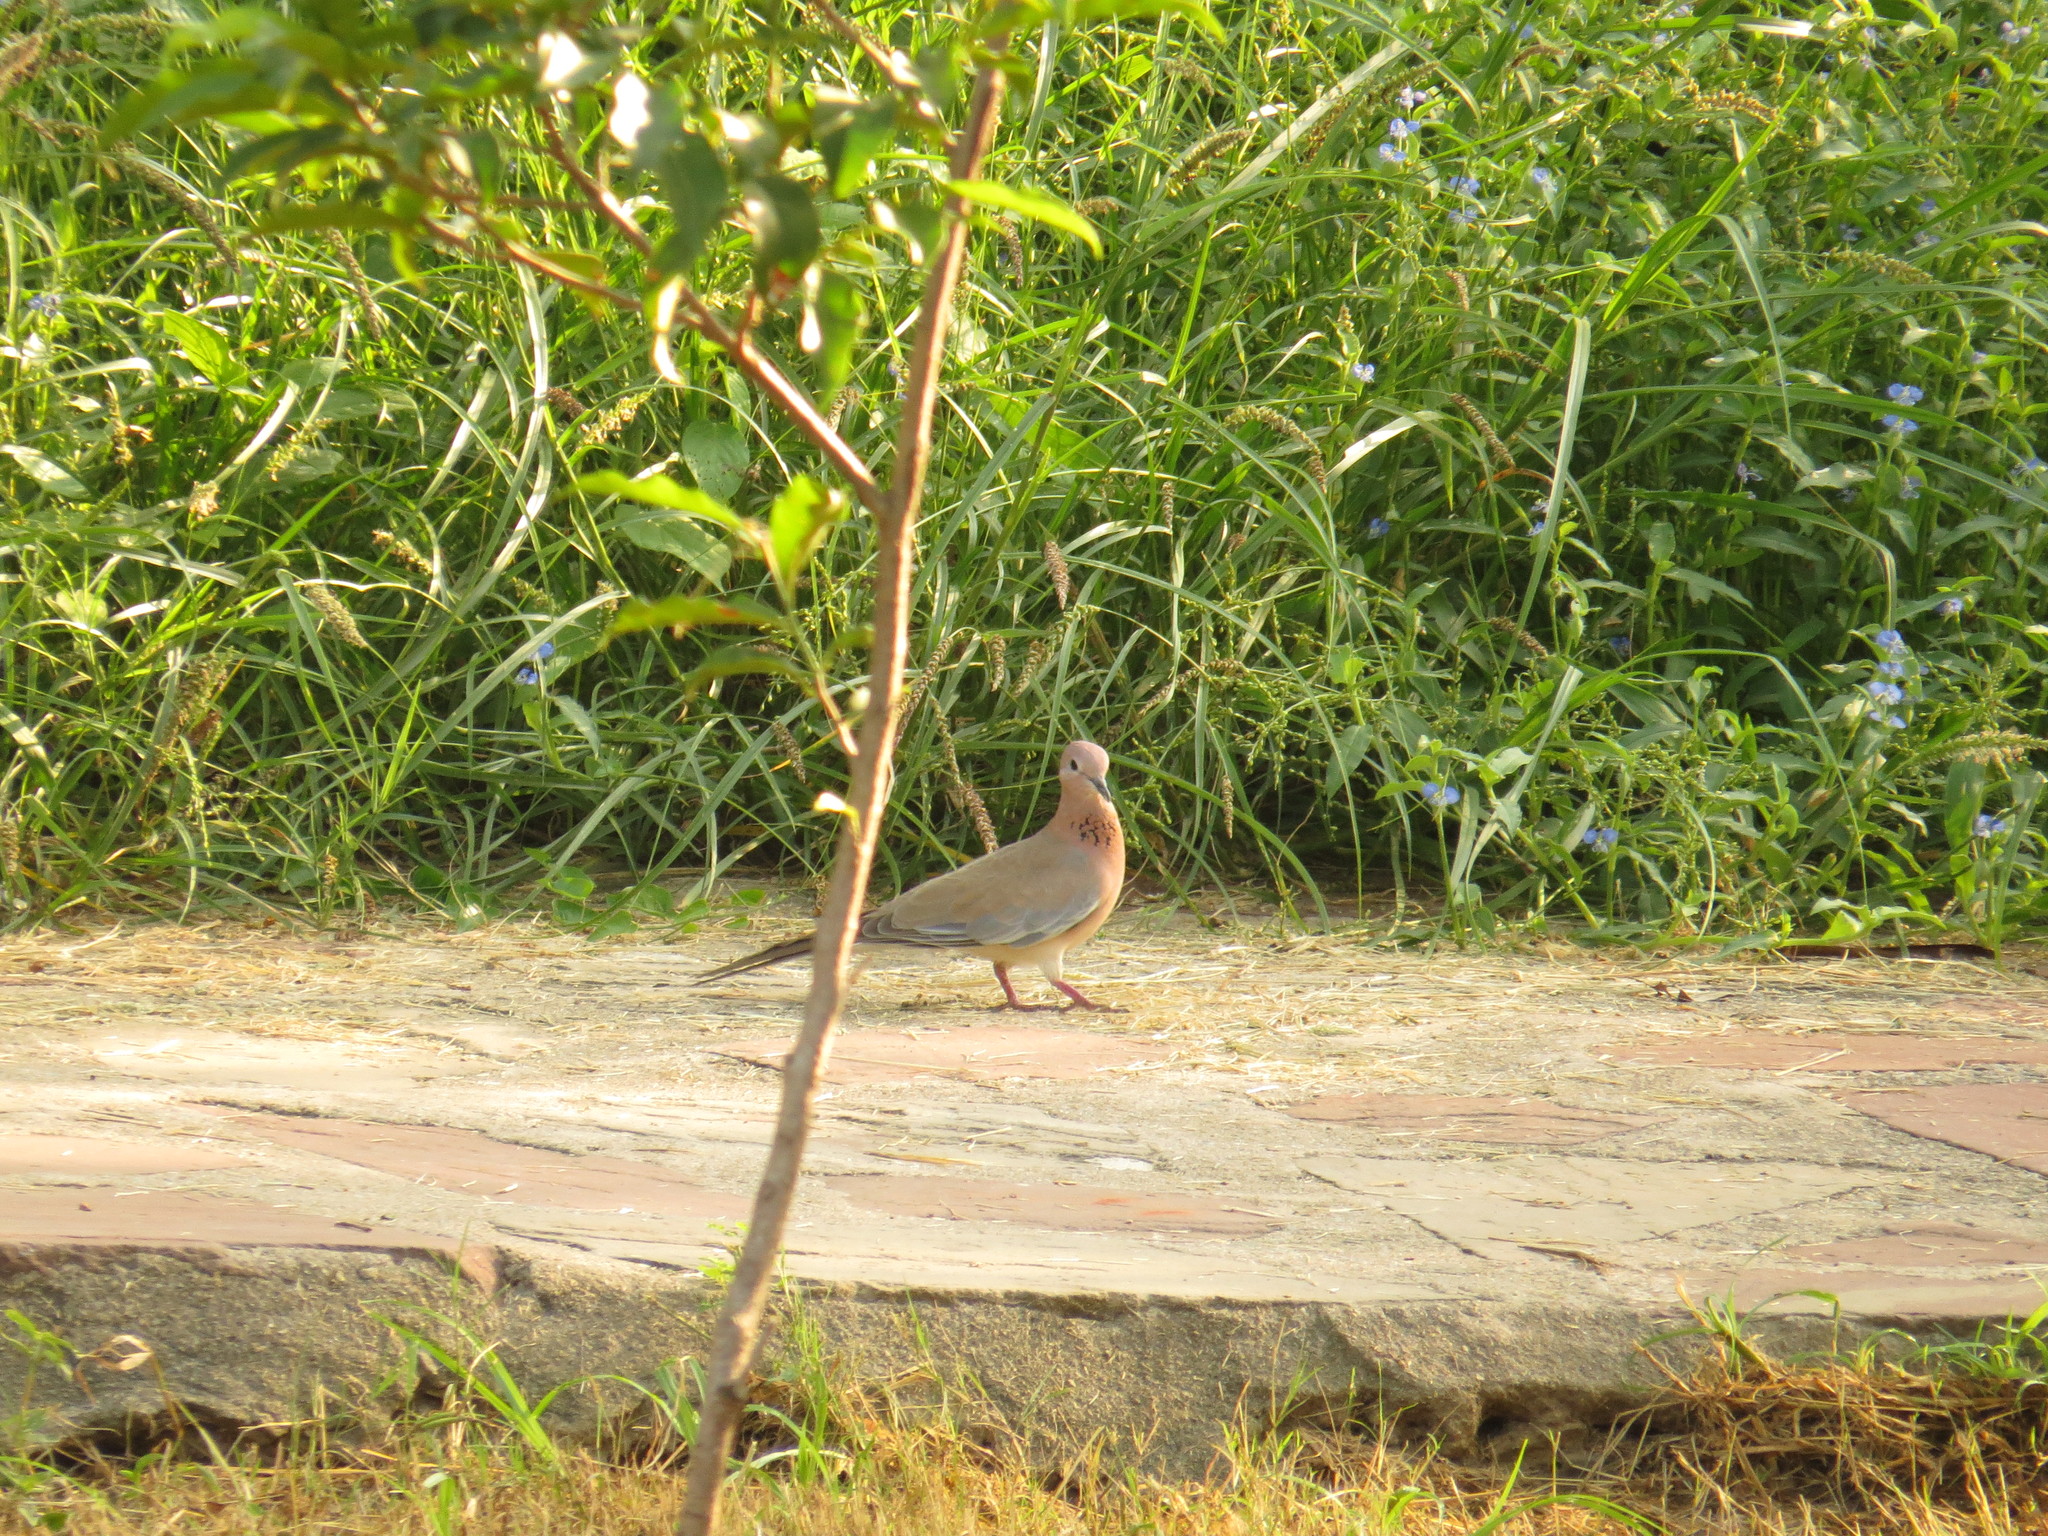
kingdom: Animalia
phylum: Chordata
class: Aves
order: Columbiformes
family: Columbidae
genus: Spilopelia
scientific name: Spilopelia senegalensis
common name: Laughing dove
